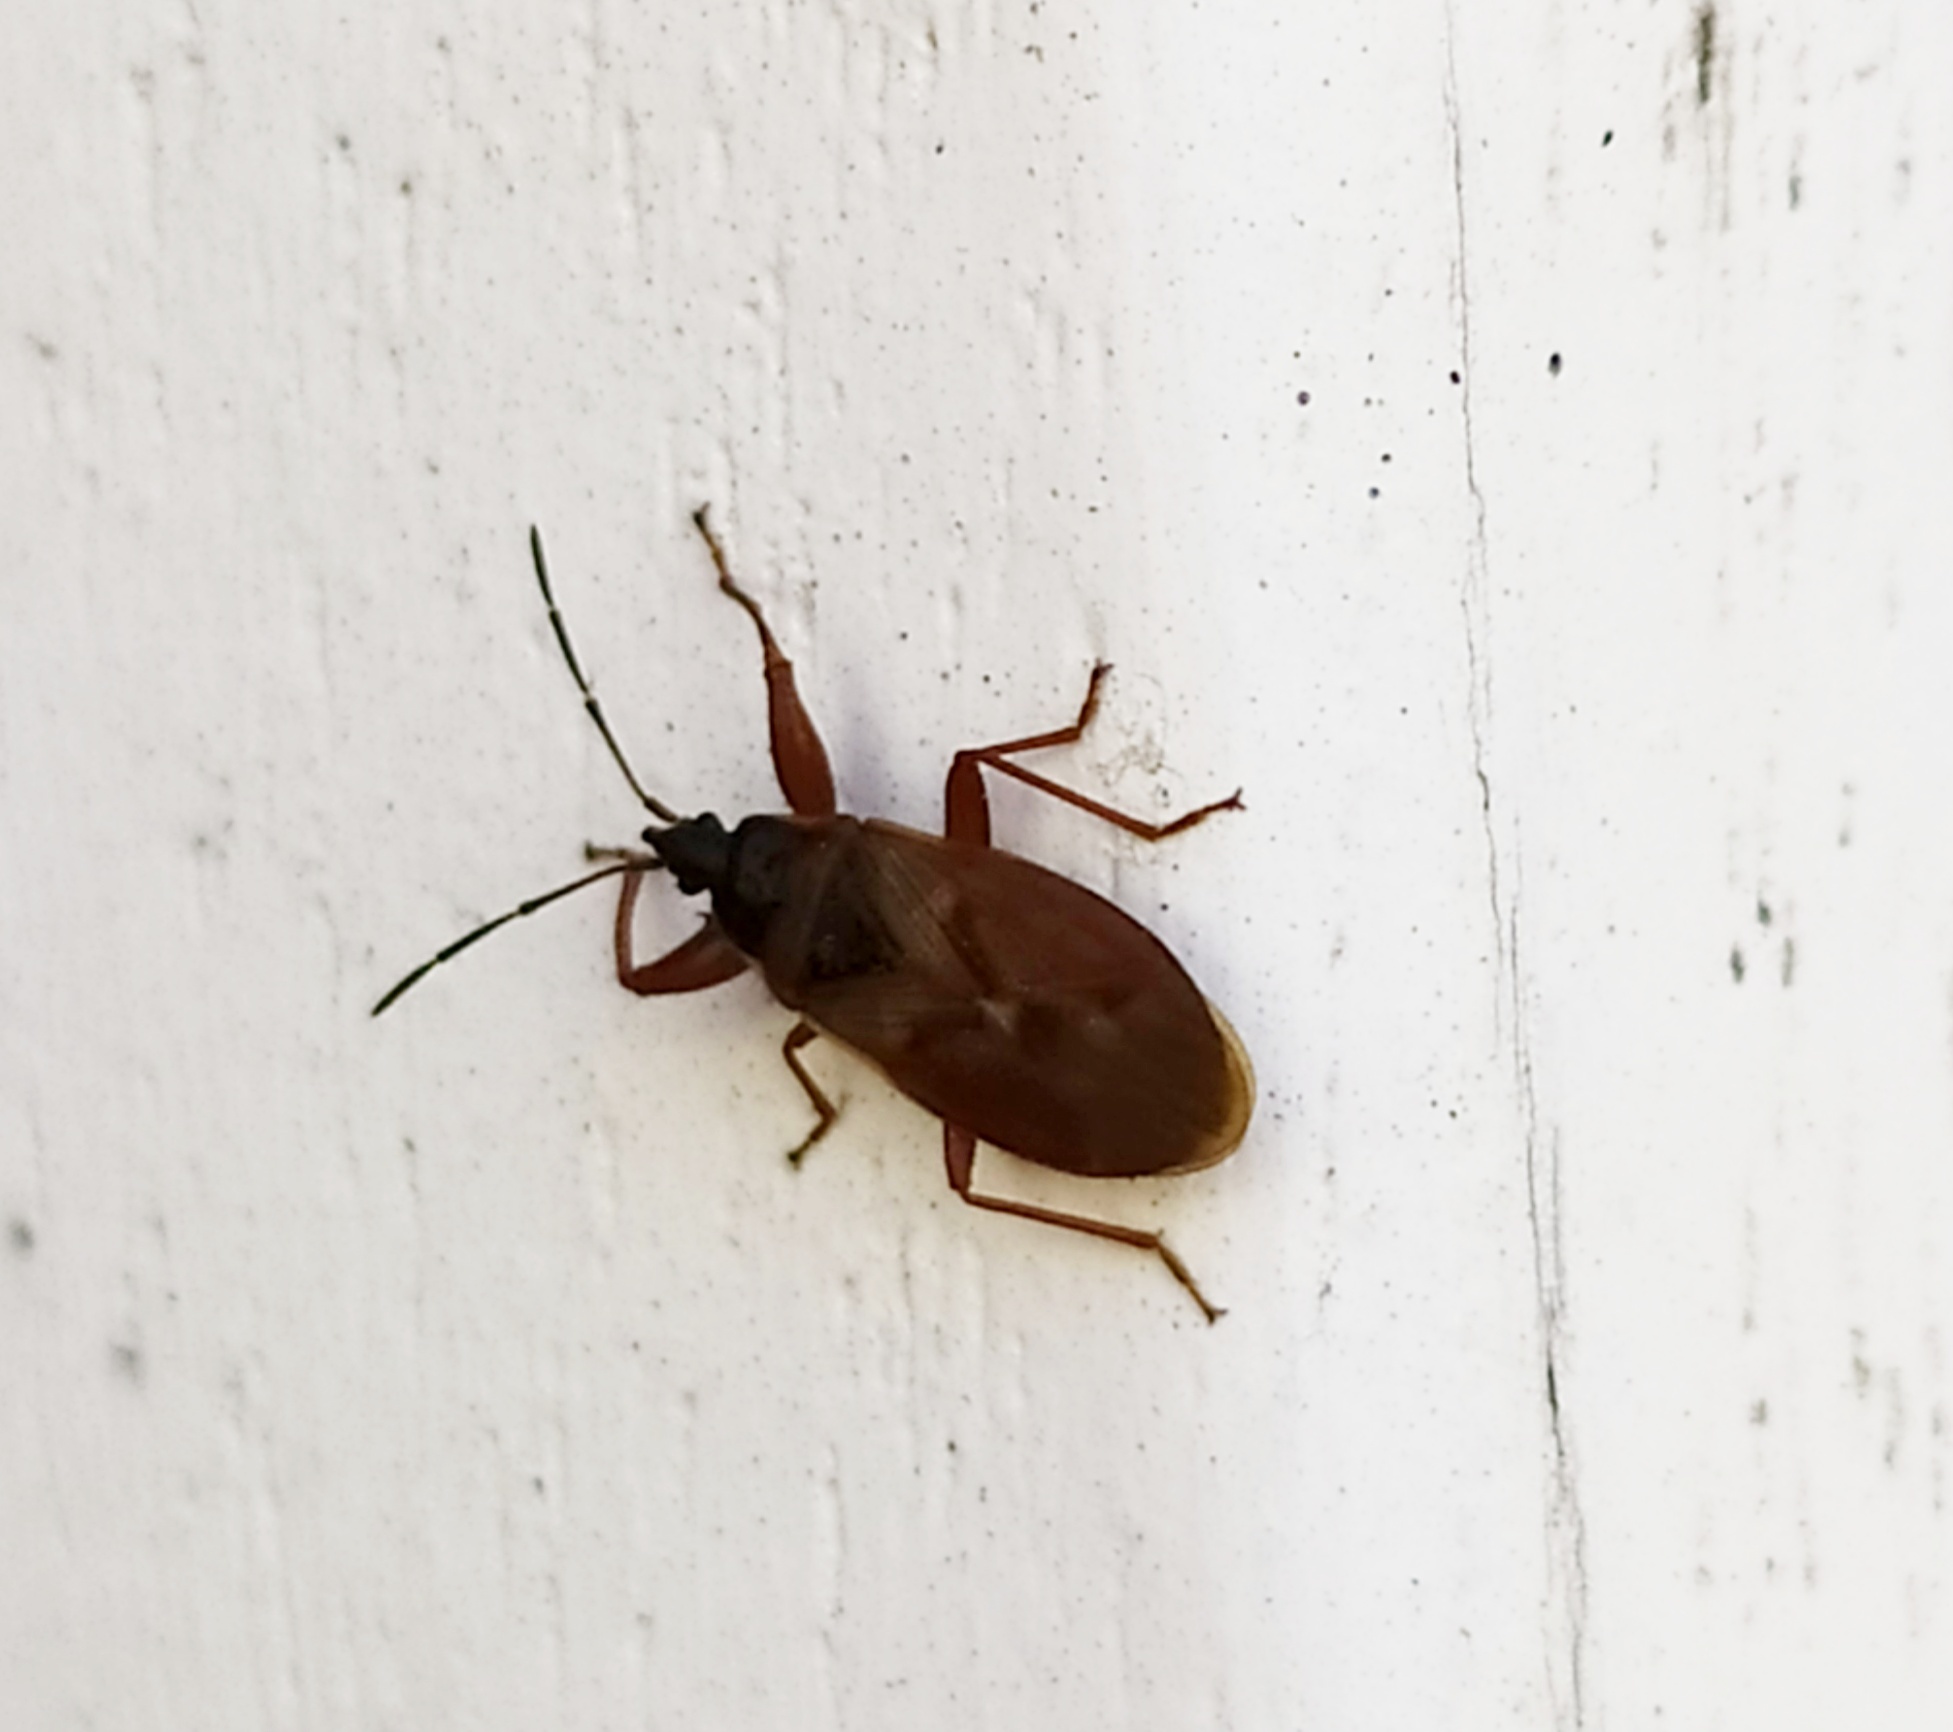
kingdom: Animalia
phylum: Arthropoda
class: Insecta
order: Hemiptera
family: Rhyparochromidae
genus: Gastrodes
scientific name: Gastrodes abietum
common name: Spruce cone bug
